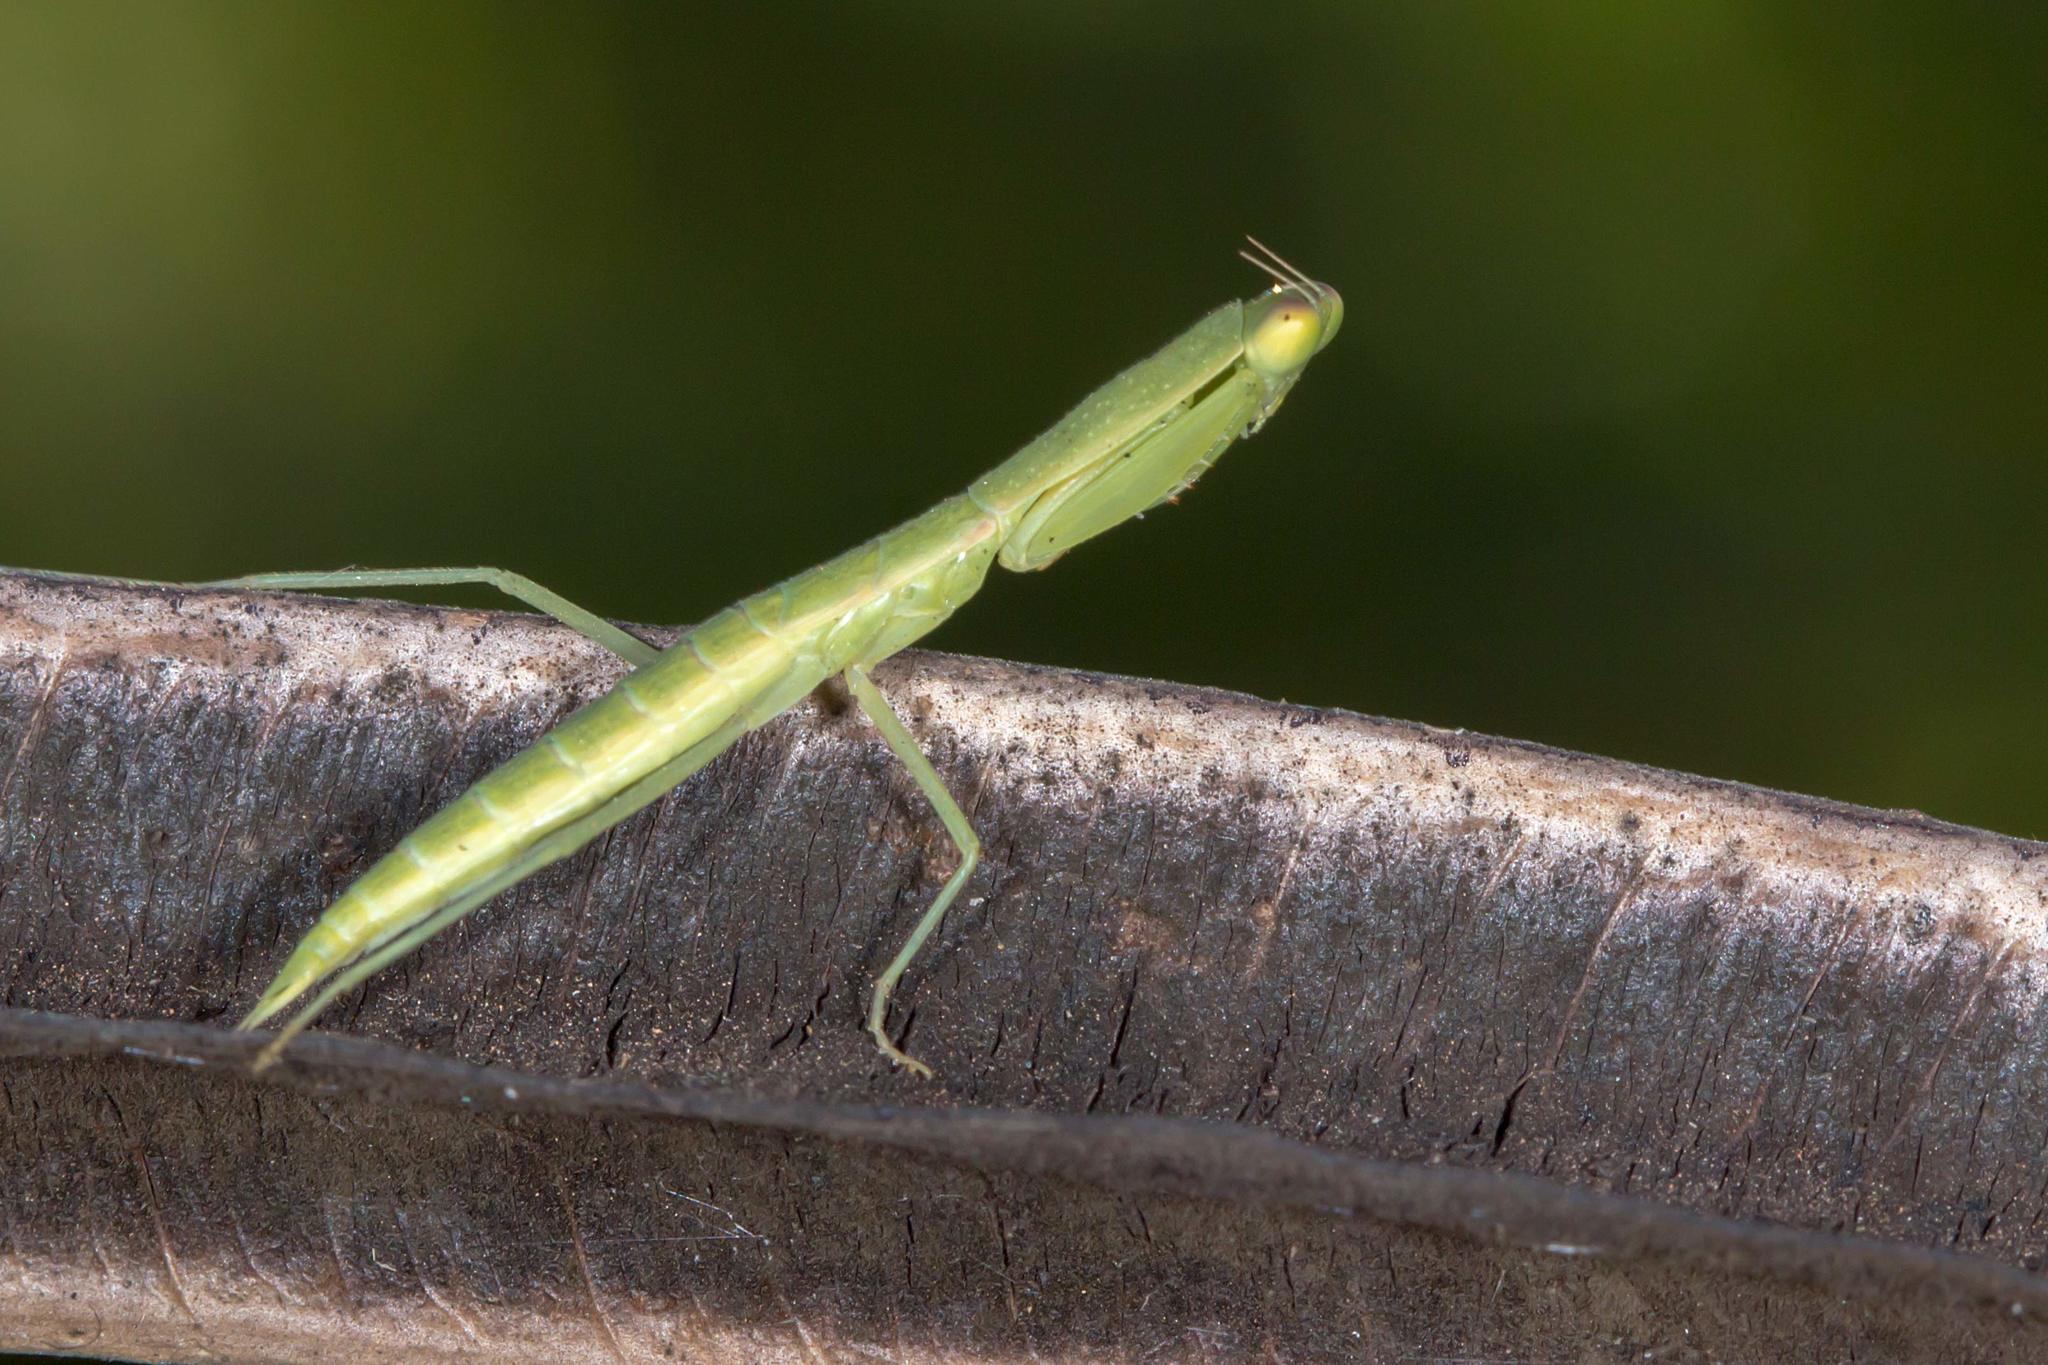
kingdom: Animalia
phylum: Arthropoda
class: Insecta
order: Mantodea
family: Mantidae
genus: Orthodera
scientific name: Orthodera ministralis
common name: Mantis
